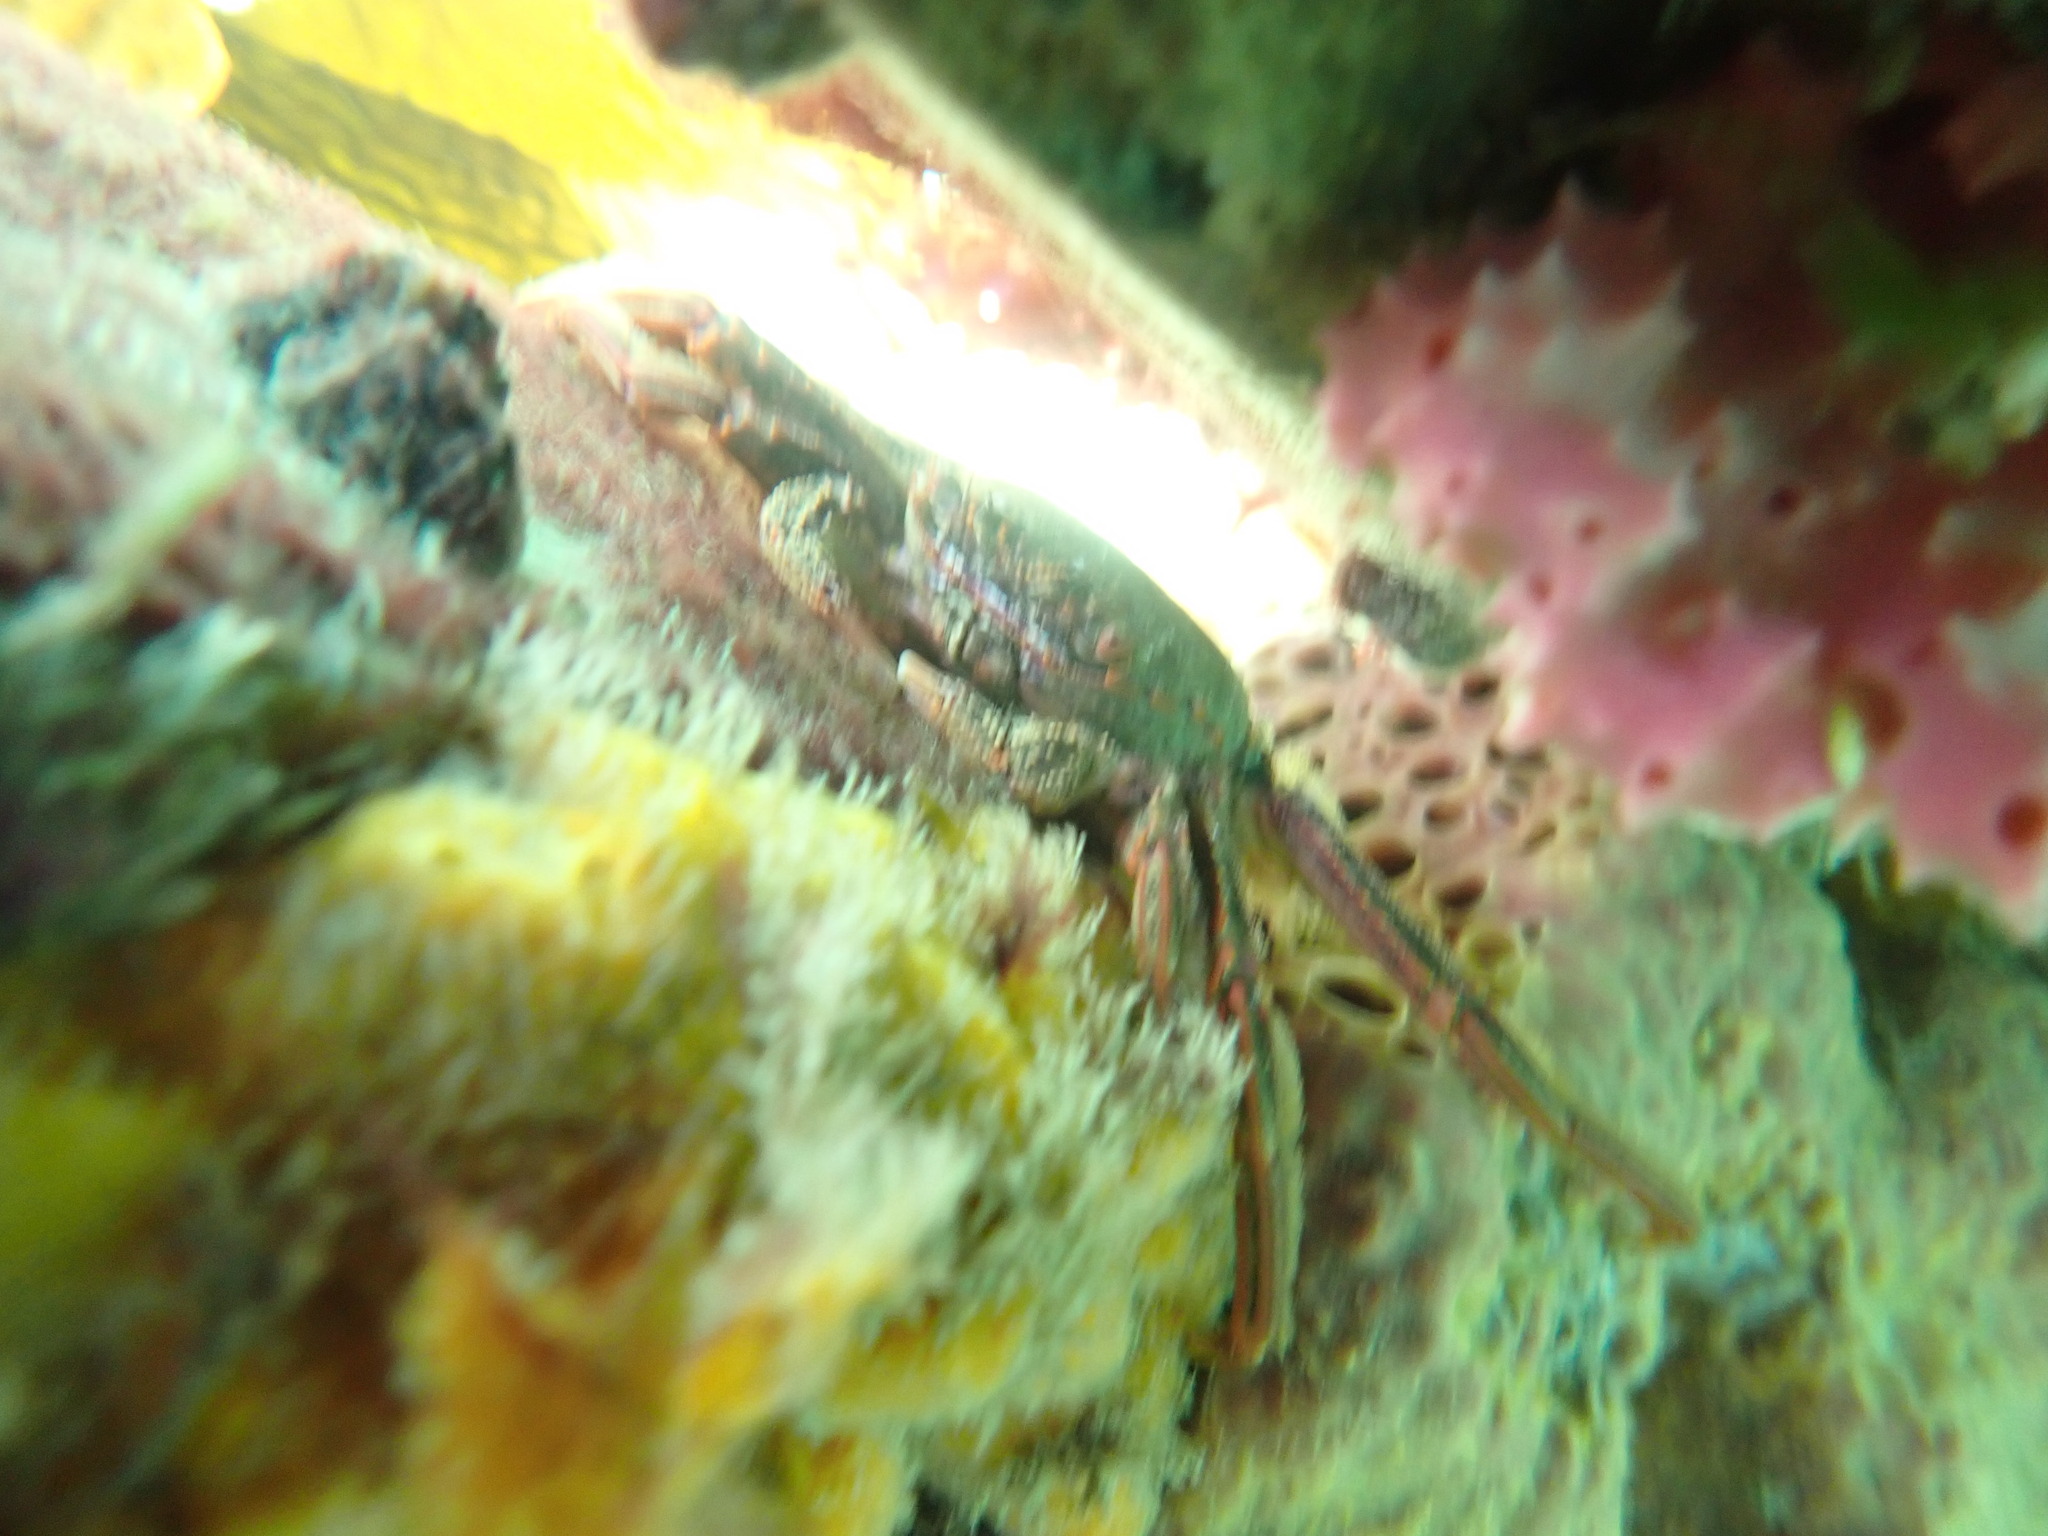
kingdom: Animalia
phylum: Arthropoda
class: Malacostraca
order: Decapoda
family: Plagusiidae
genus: Guinusia
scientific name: Guinusia chabrus
